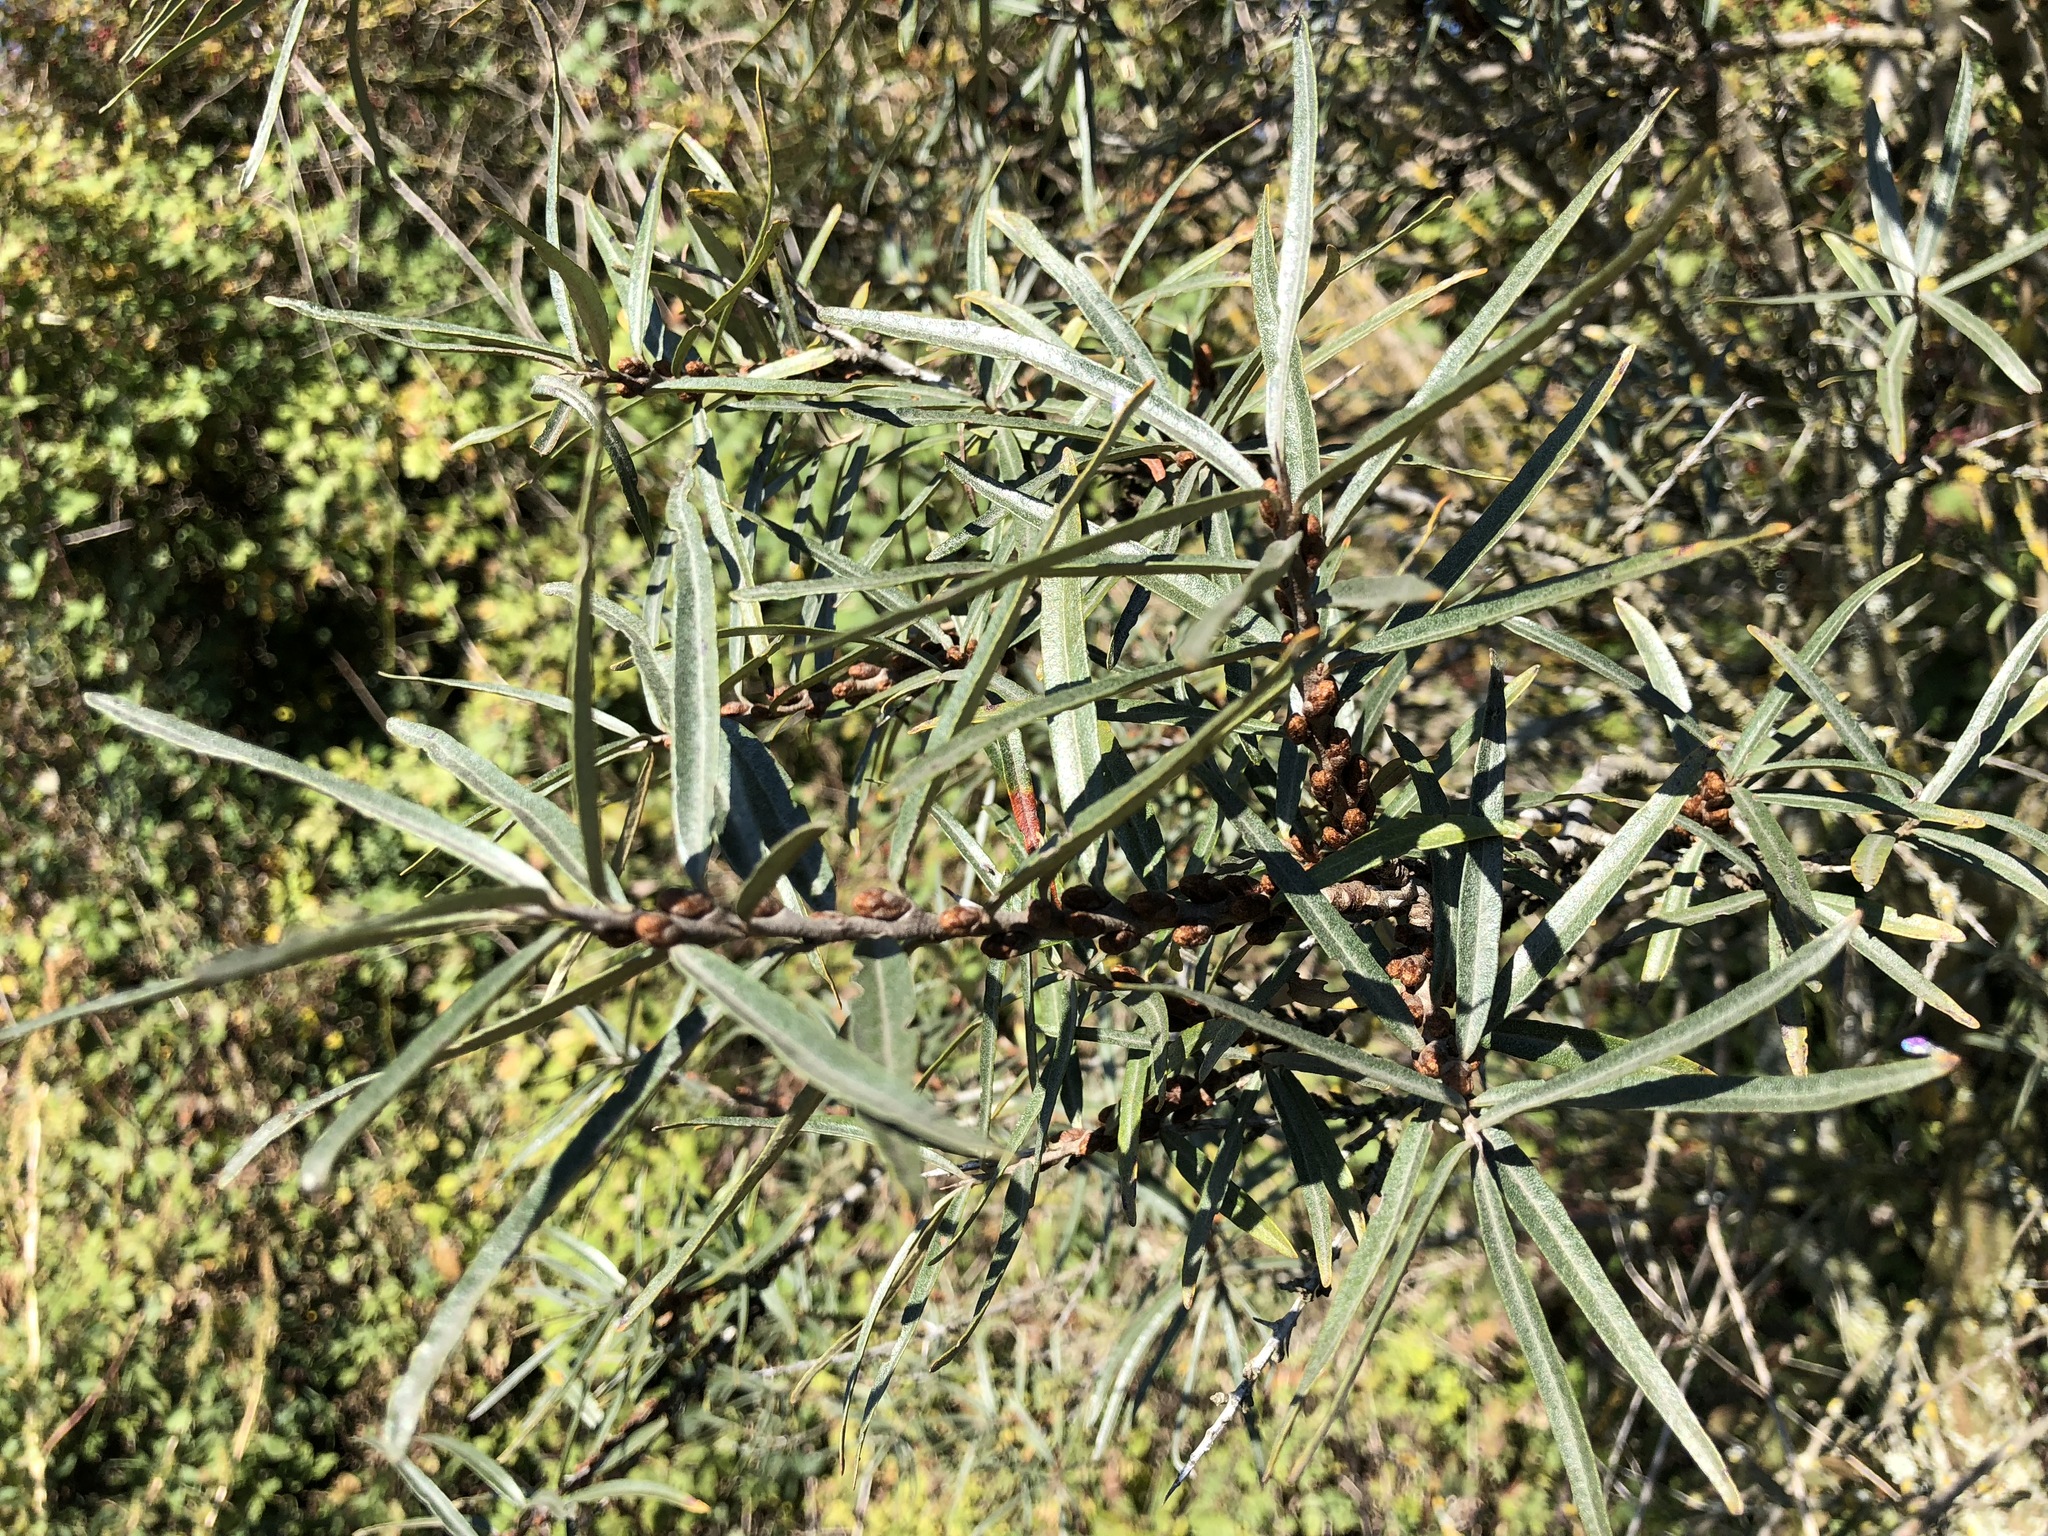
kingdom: Plantae
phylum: Tracheophyta
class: Magnoliopsida
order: Rosales
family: Elaeagnaceae
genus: Hippophae
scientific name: Hippophae rhamnoides
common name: Sea-buckthorn
